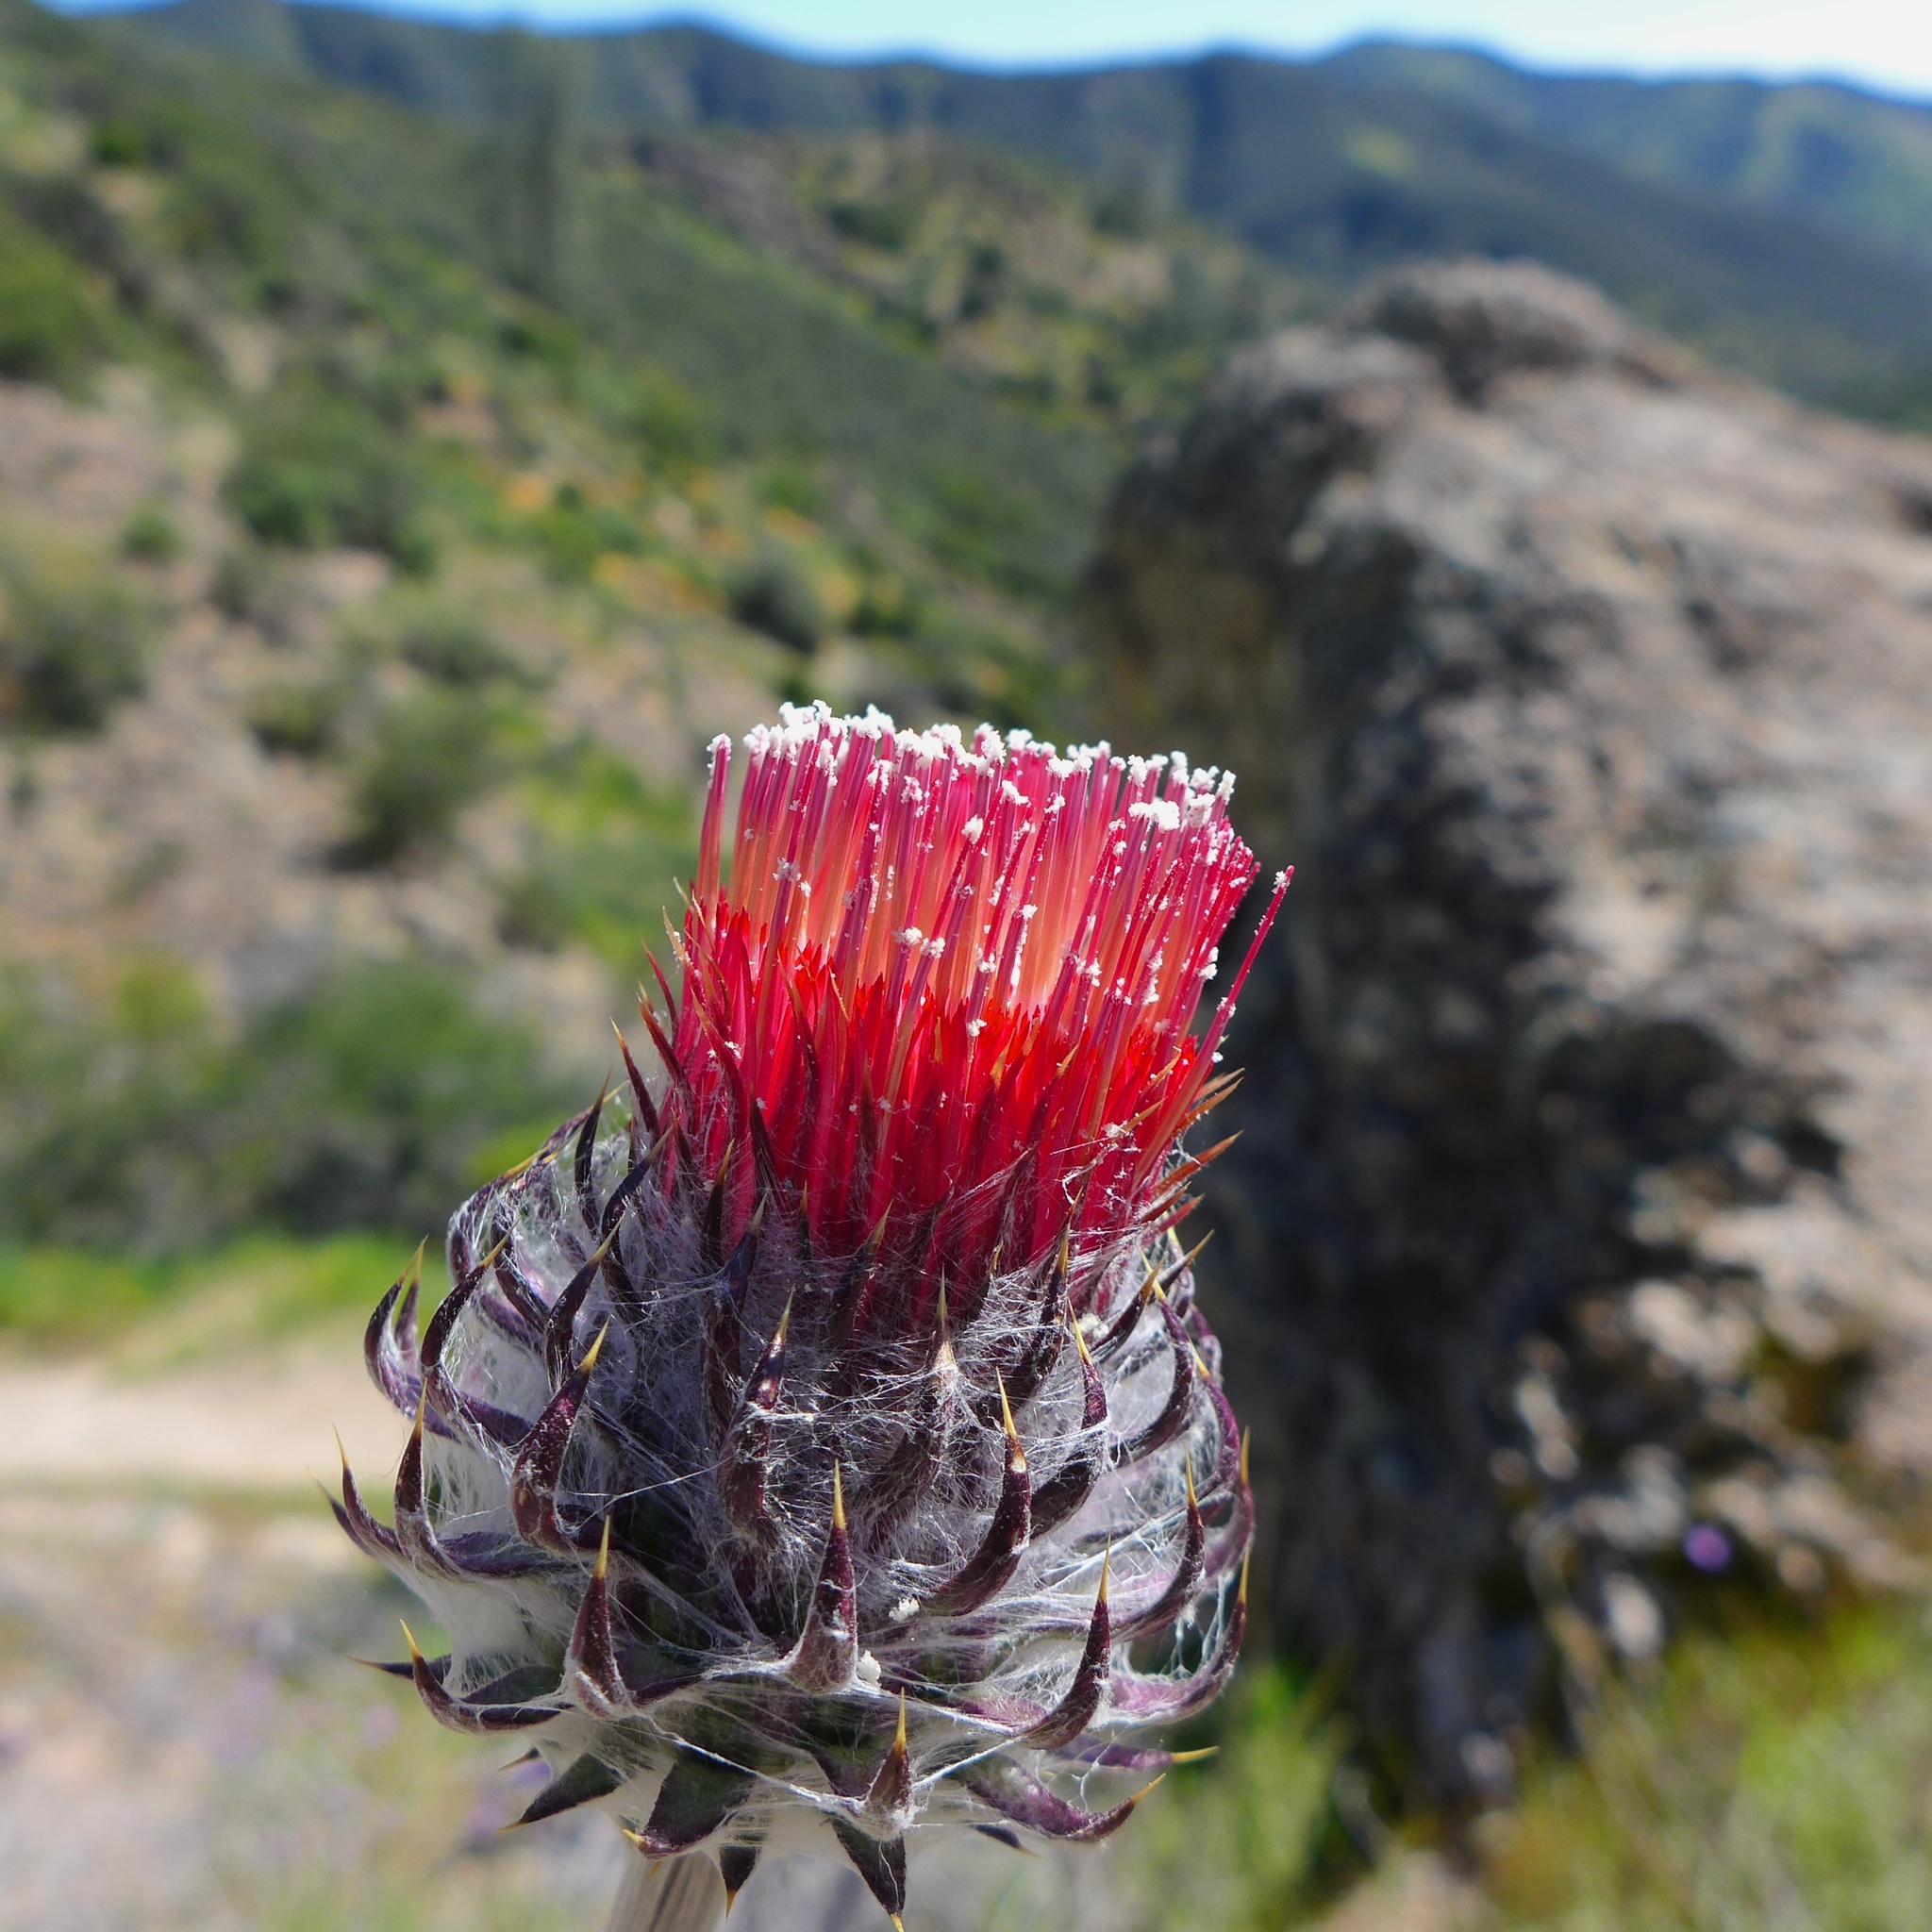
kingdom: Plantae
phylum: Tracheophyta
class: Magnoliopsida
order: Asterales
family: Asteraceae
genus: Cirsium
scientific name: Cirsium occidentale
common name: Western thistle
